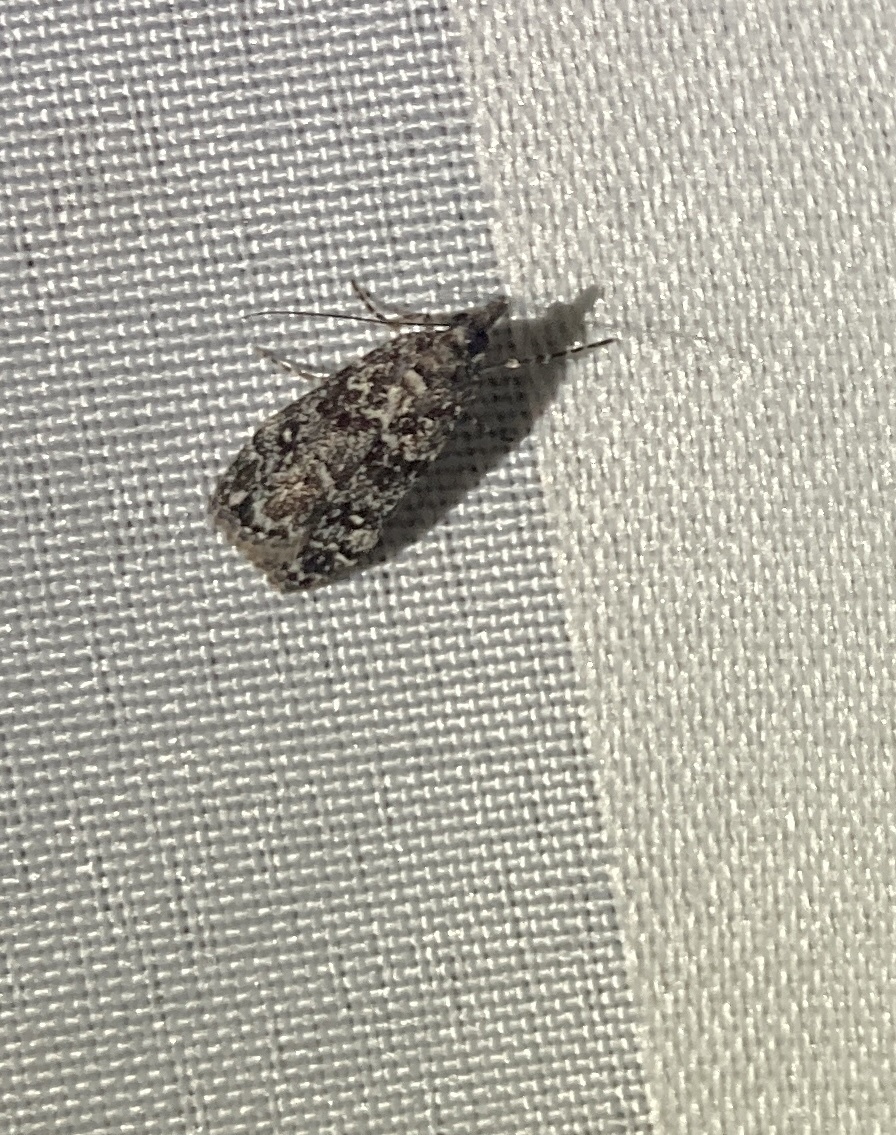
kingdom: Animalia
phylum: Arthropoda
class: Insecta
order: Lepidoptera
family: Crambidae
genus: Eudonia
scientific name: Eudonia philerga
